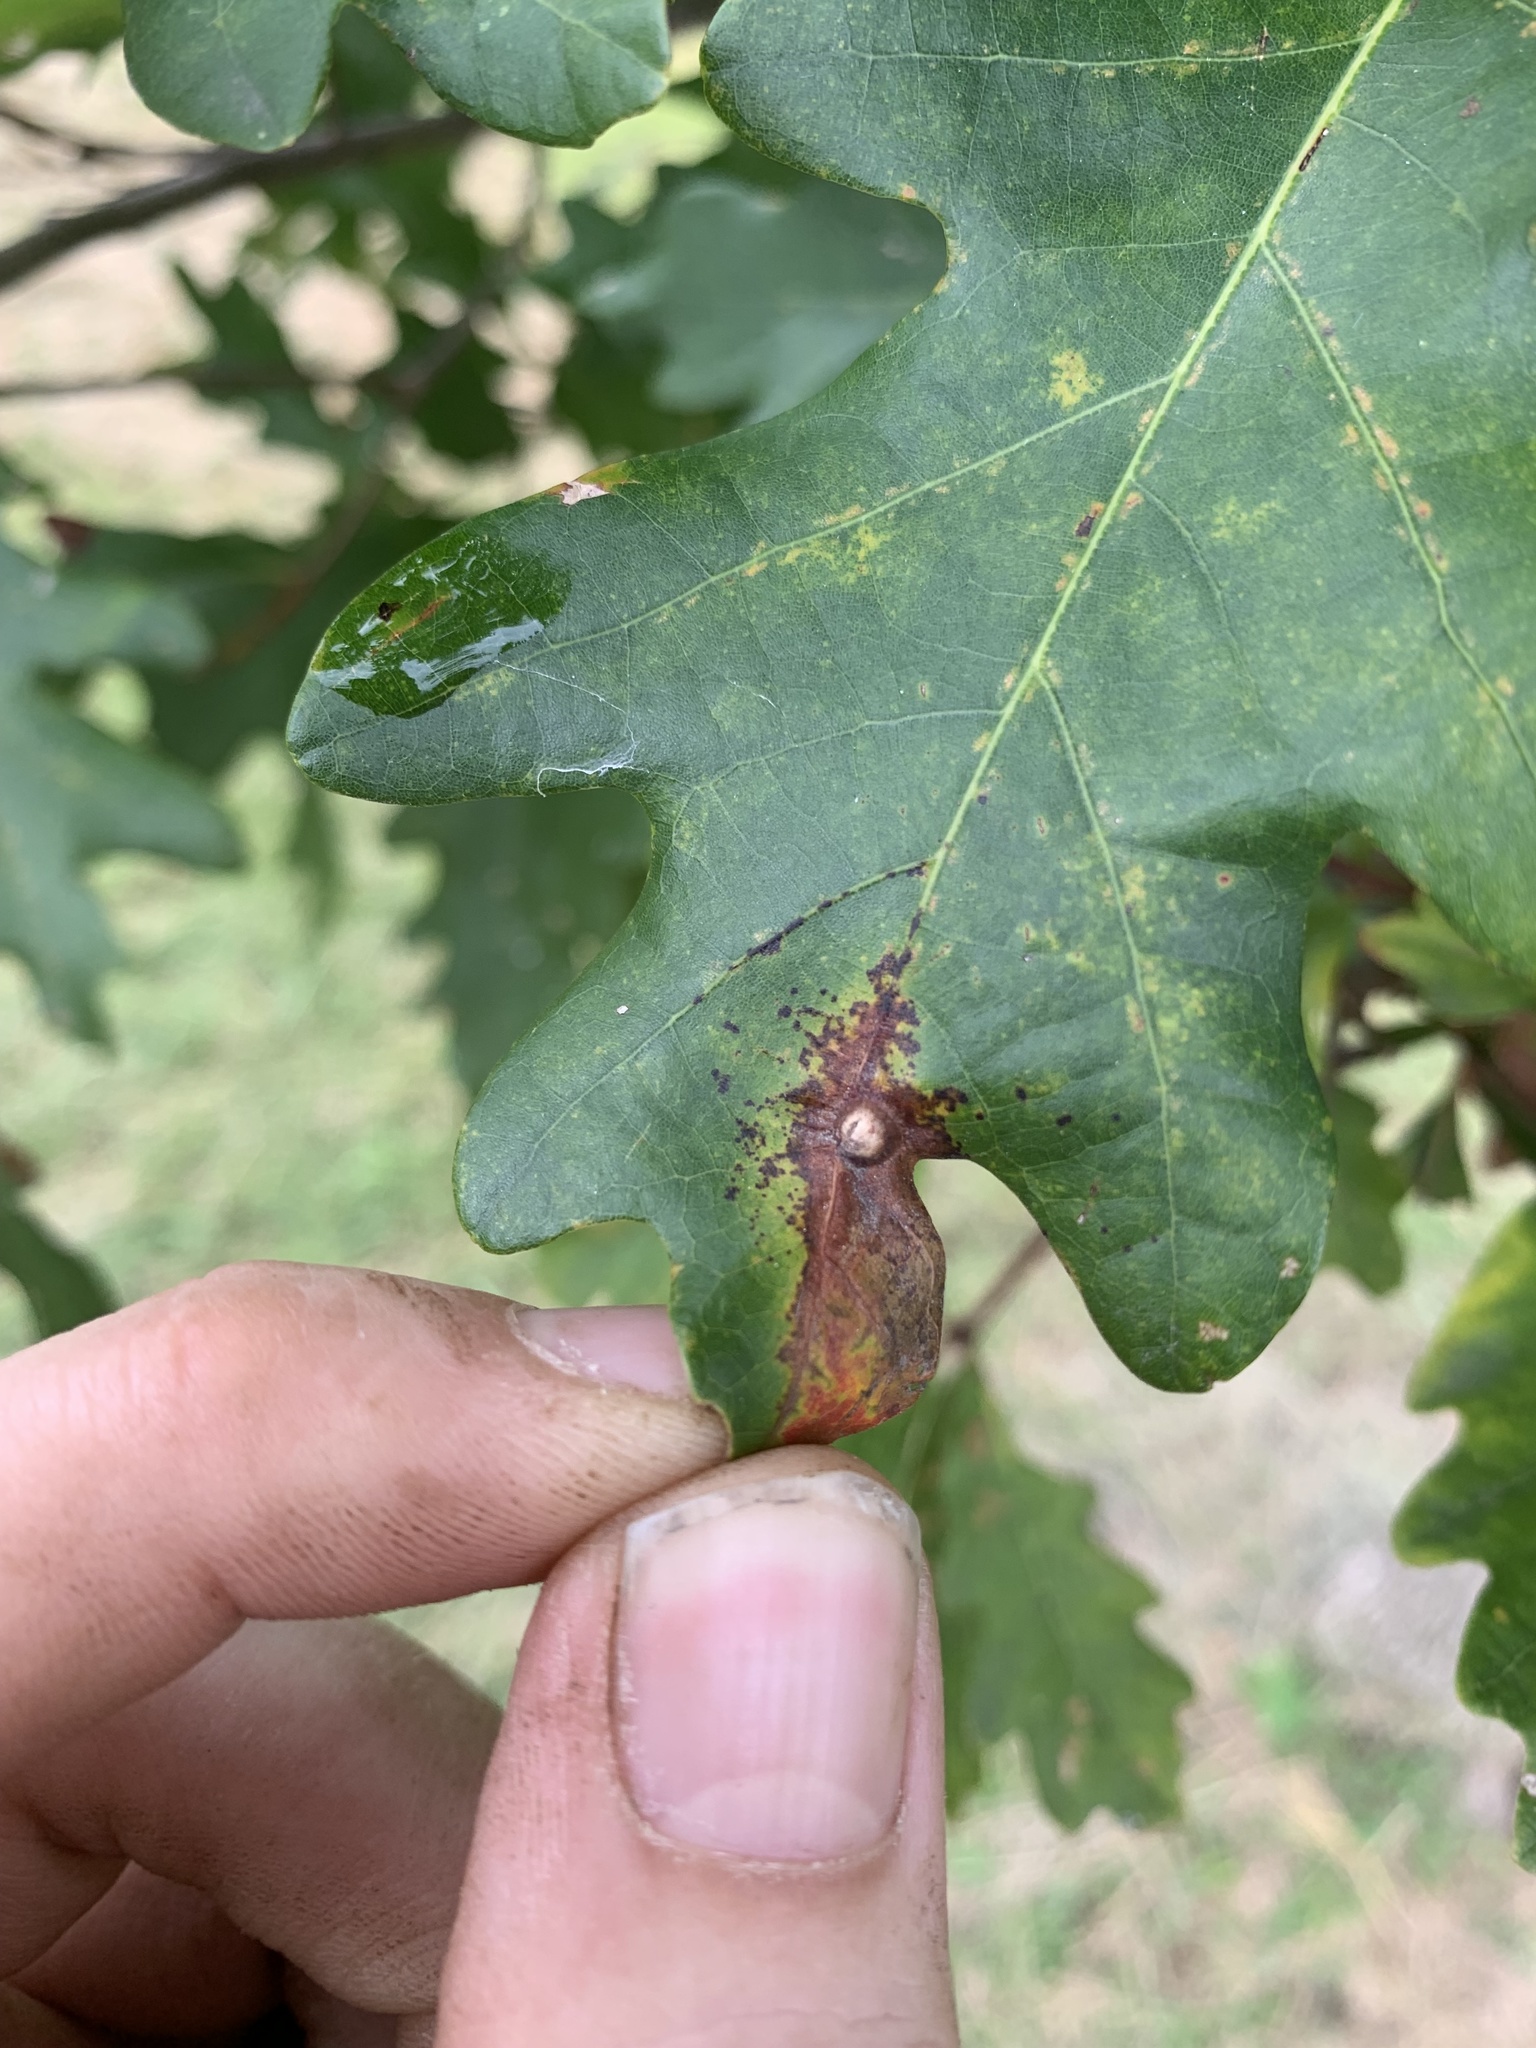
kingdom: Animalia
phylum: Arthropoda
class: Insecta
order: Hymenoptera
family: Cynipidae
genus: Andricus
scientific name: Andricus
